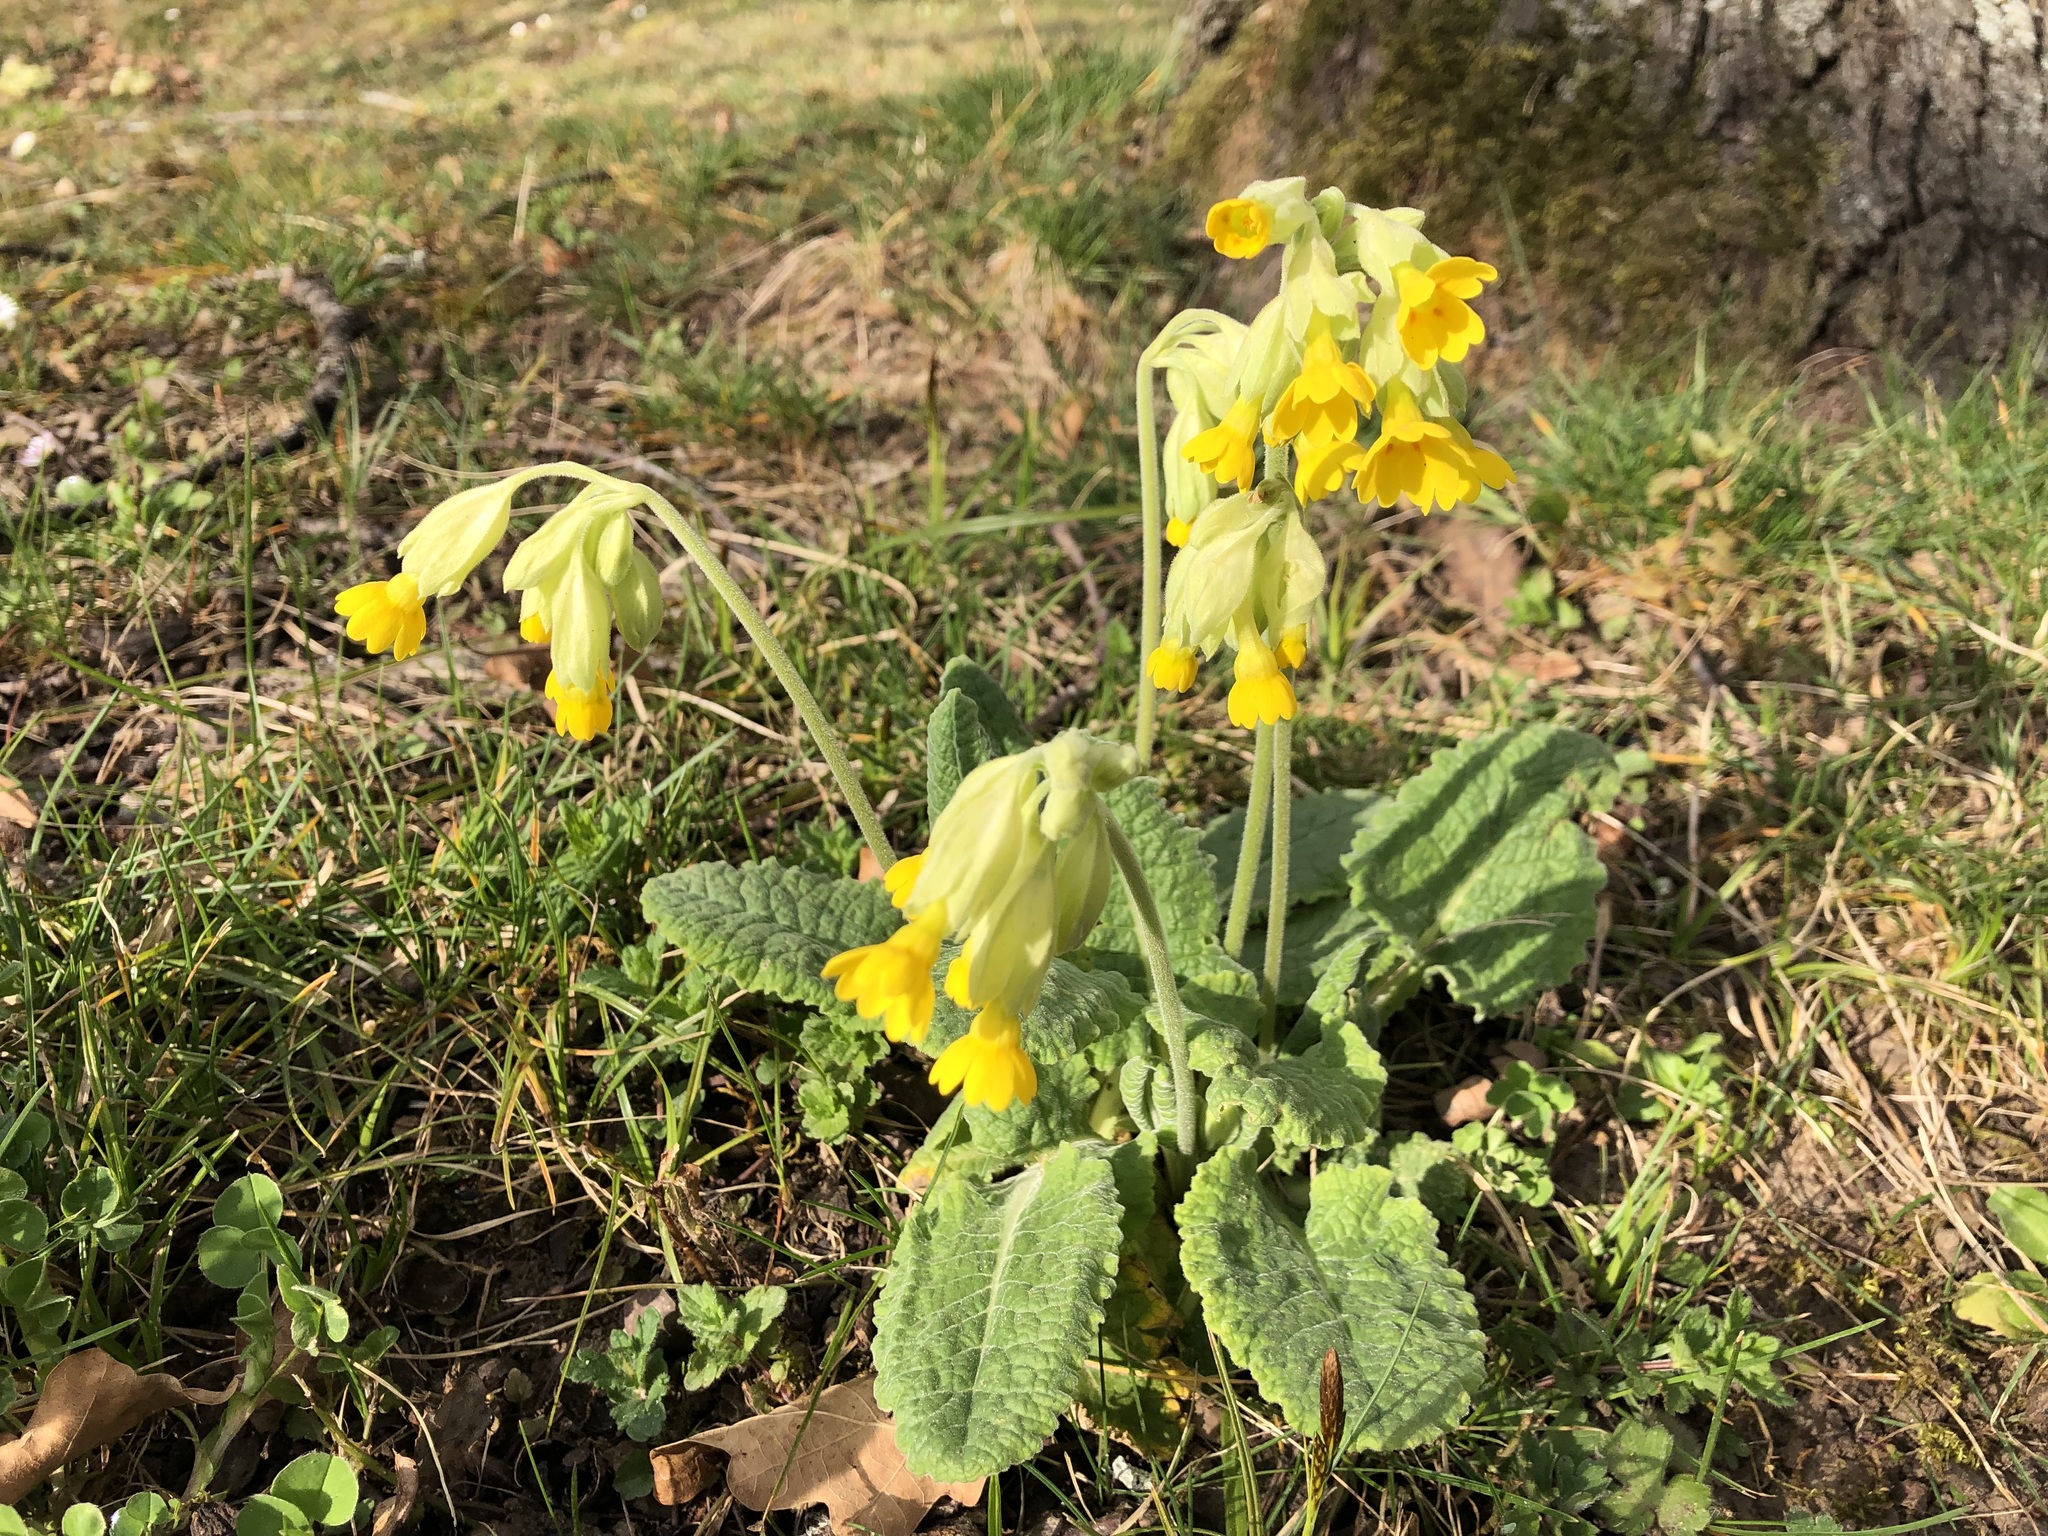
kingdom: Plantae
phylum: Tracheophyta
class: Magnoliopsida
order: Ericales
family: Primulaceae
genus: Primula
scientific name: Primula veris
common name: Cowslip
